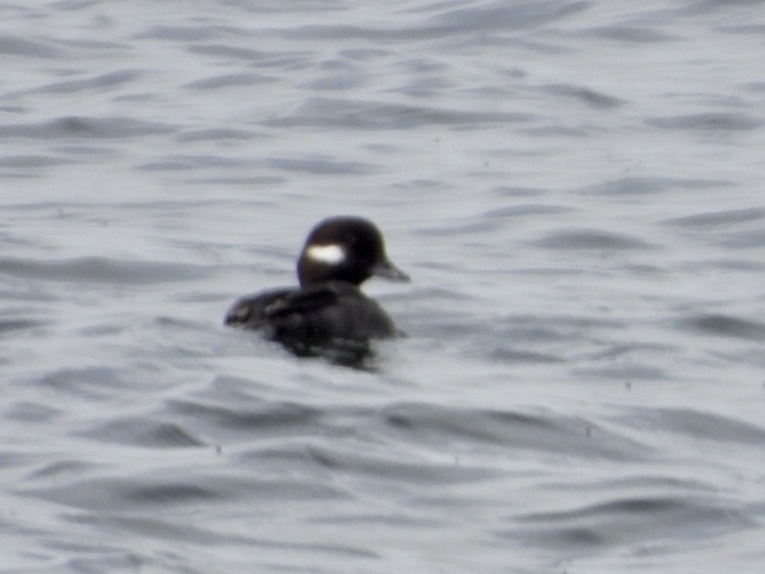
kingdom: Animalia
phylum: Chordata
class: Aves
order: Anseriformes
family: Anatidae
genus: Bucephala
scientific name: Bucephala albeola
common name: Bufflehead
